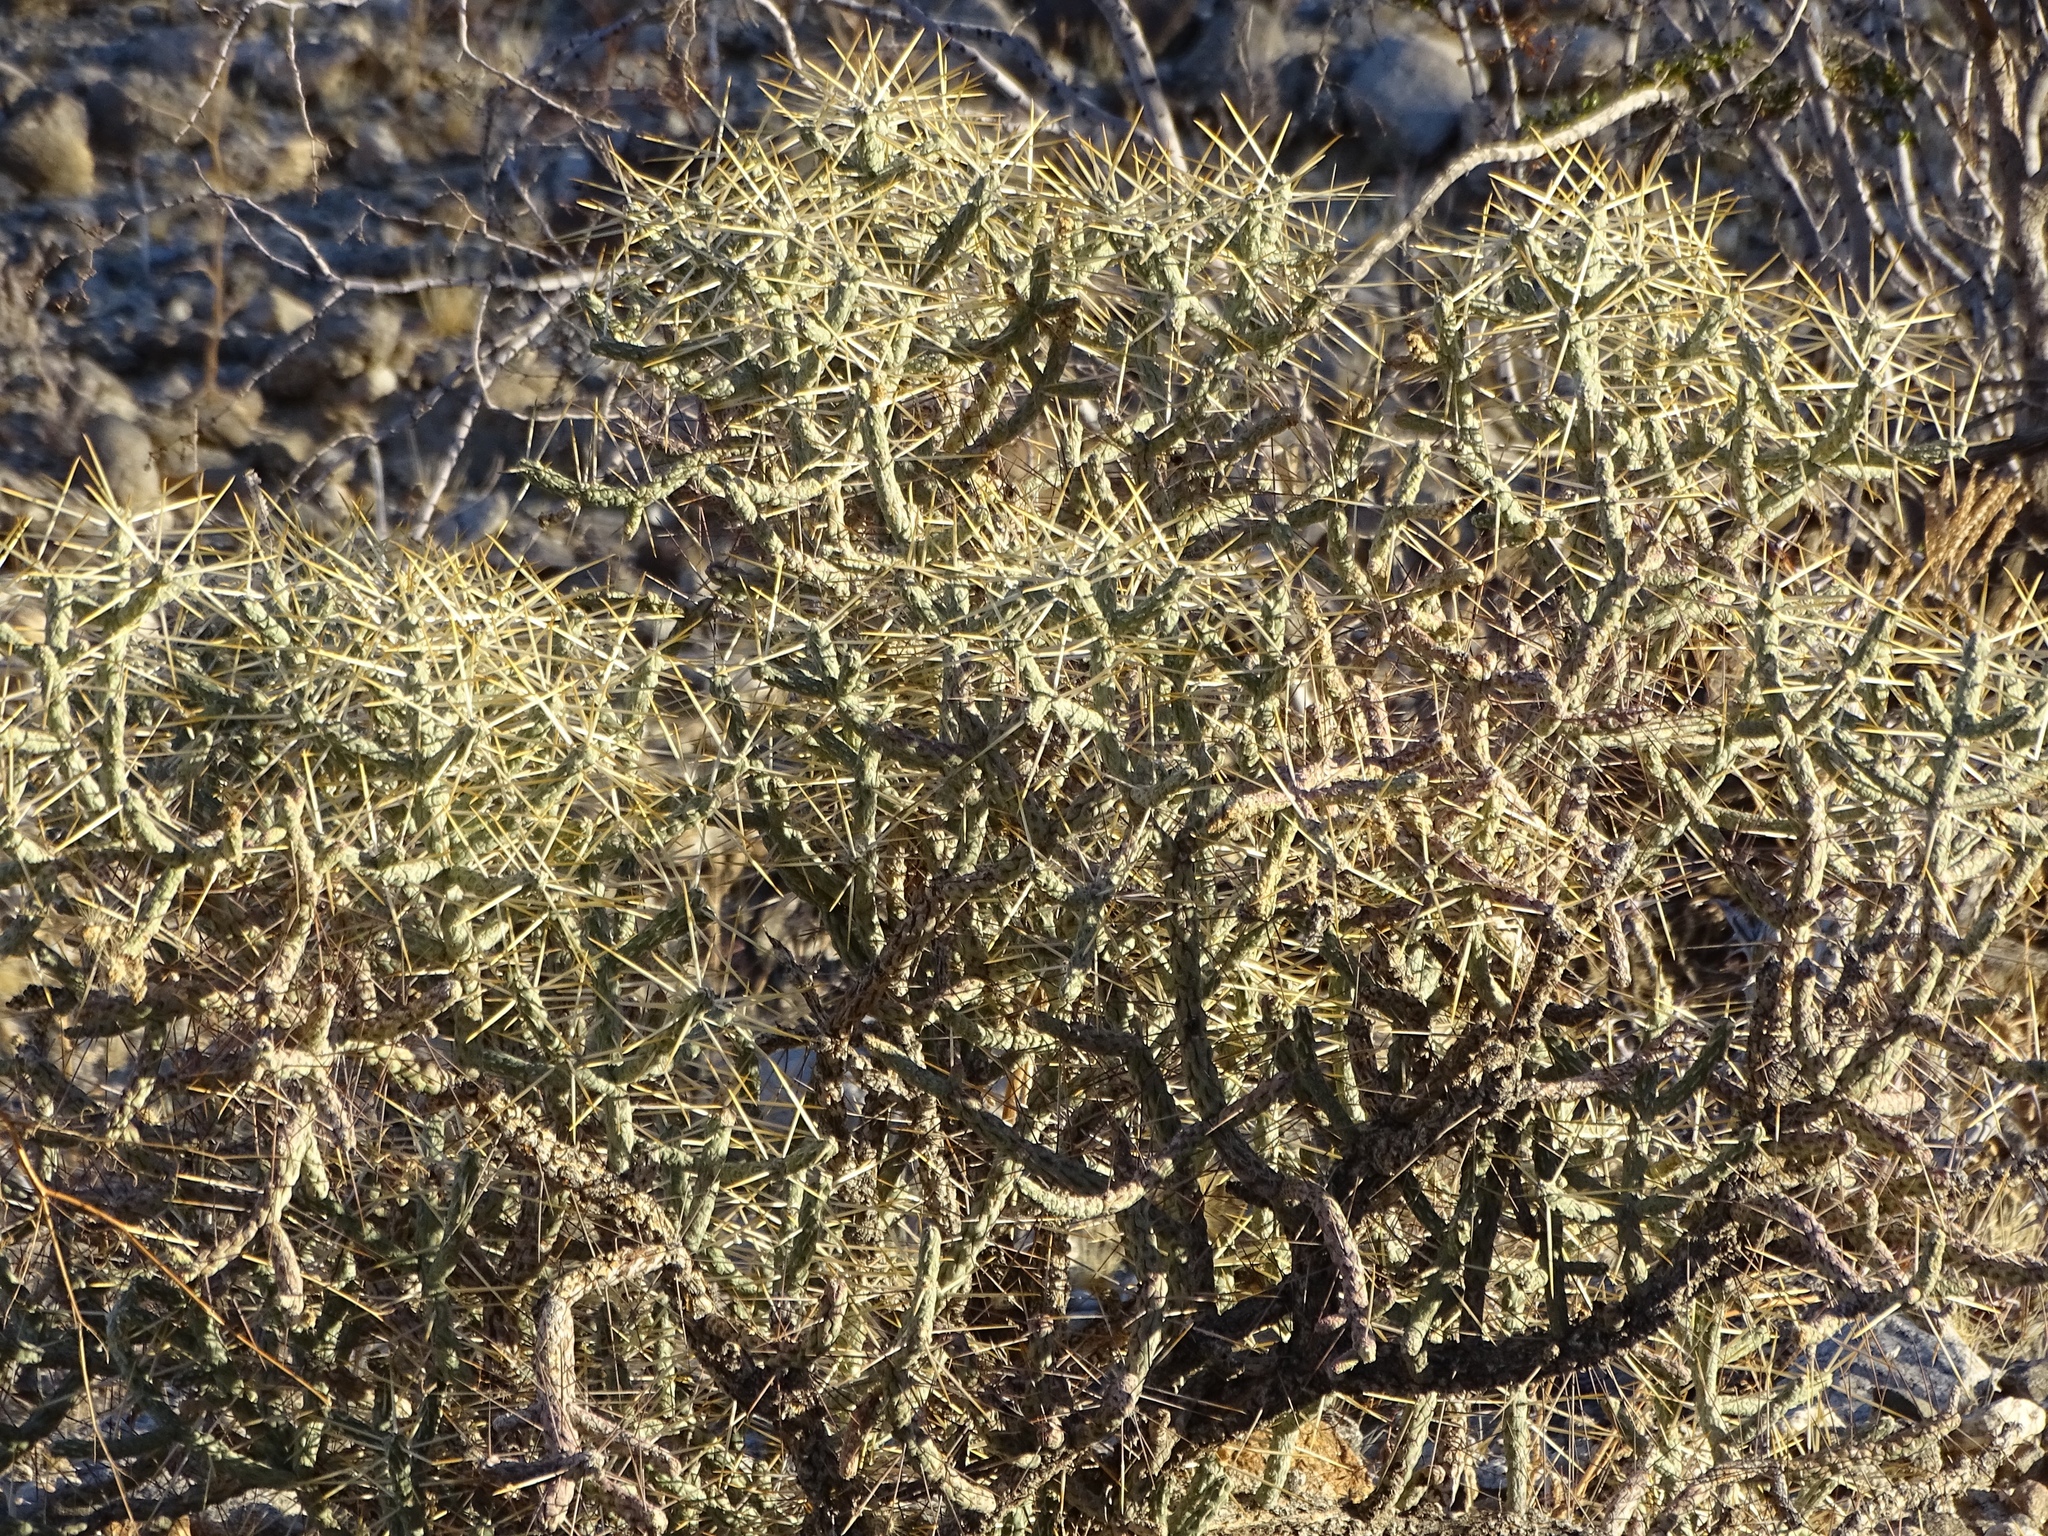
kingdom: Plantae
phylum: Tracheophyta
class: Magnoliopsida
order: Caryophyllales
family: Cactaceae
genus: Cylindropuntia
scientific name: Cylindropuntia ramosissima
